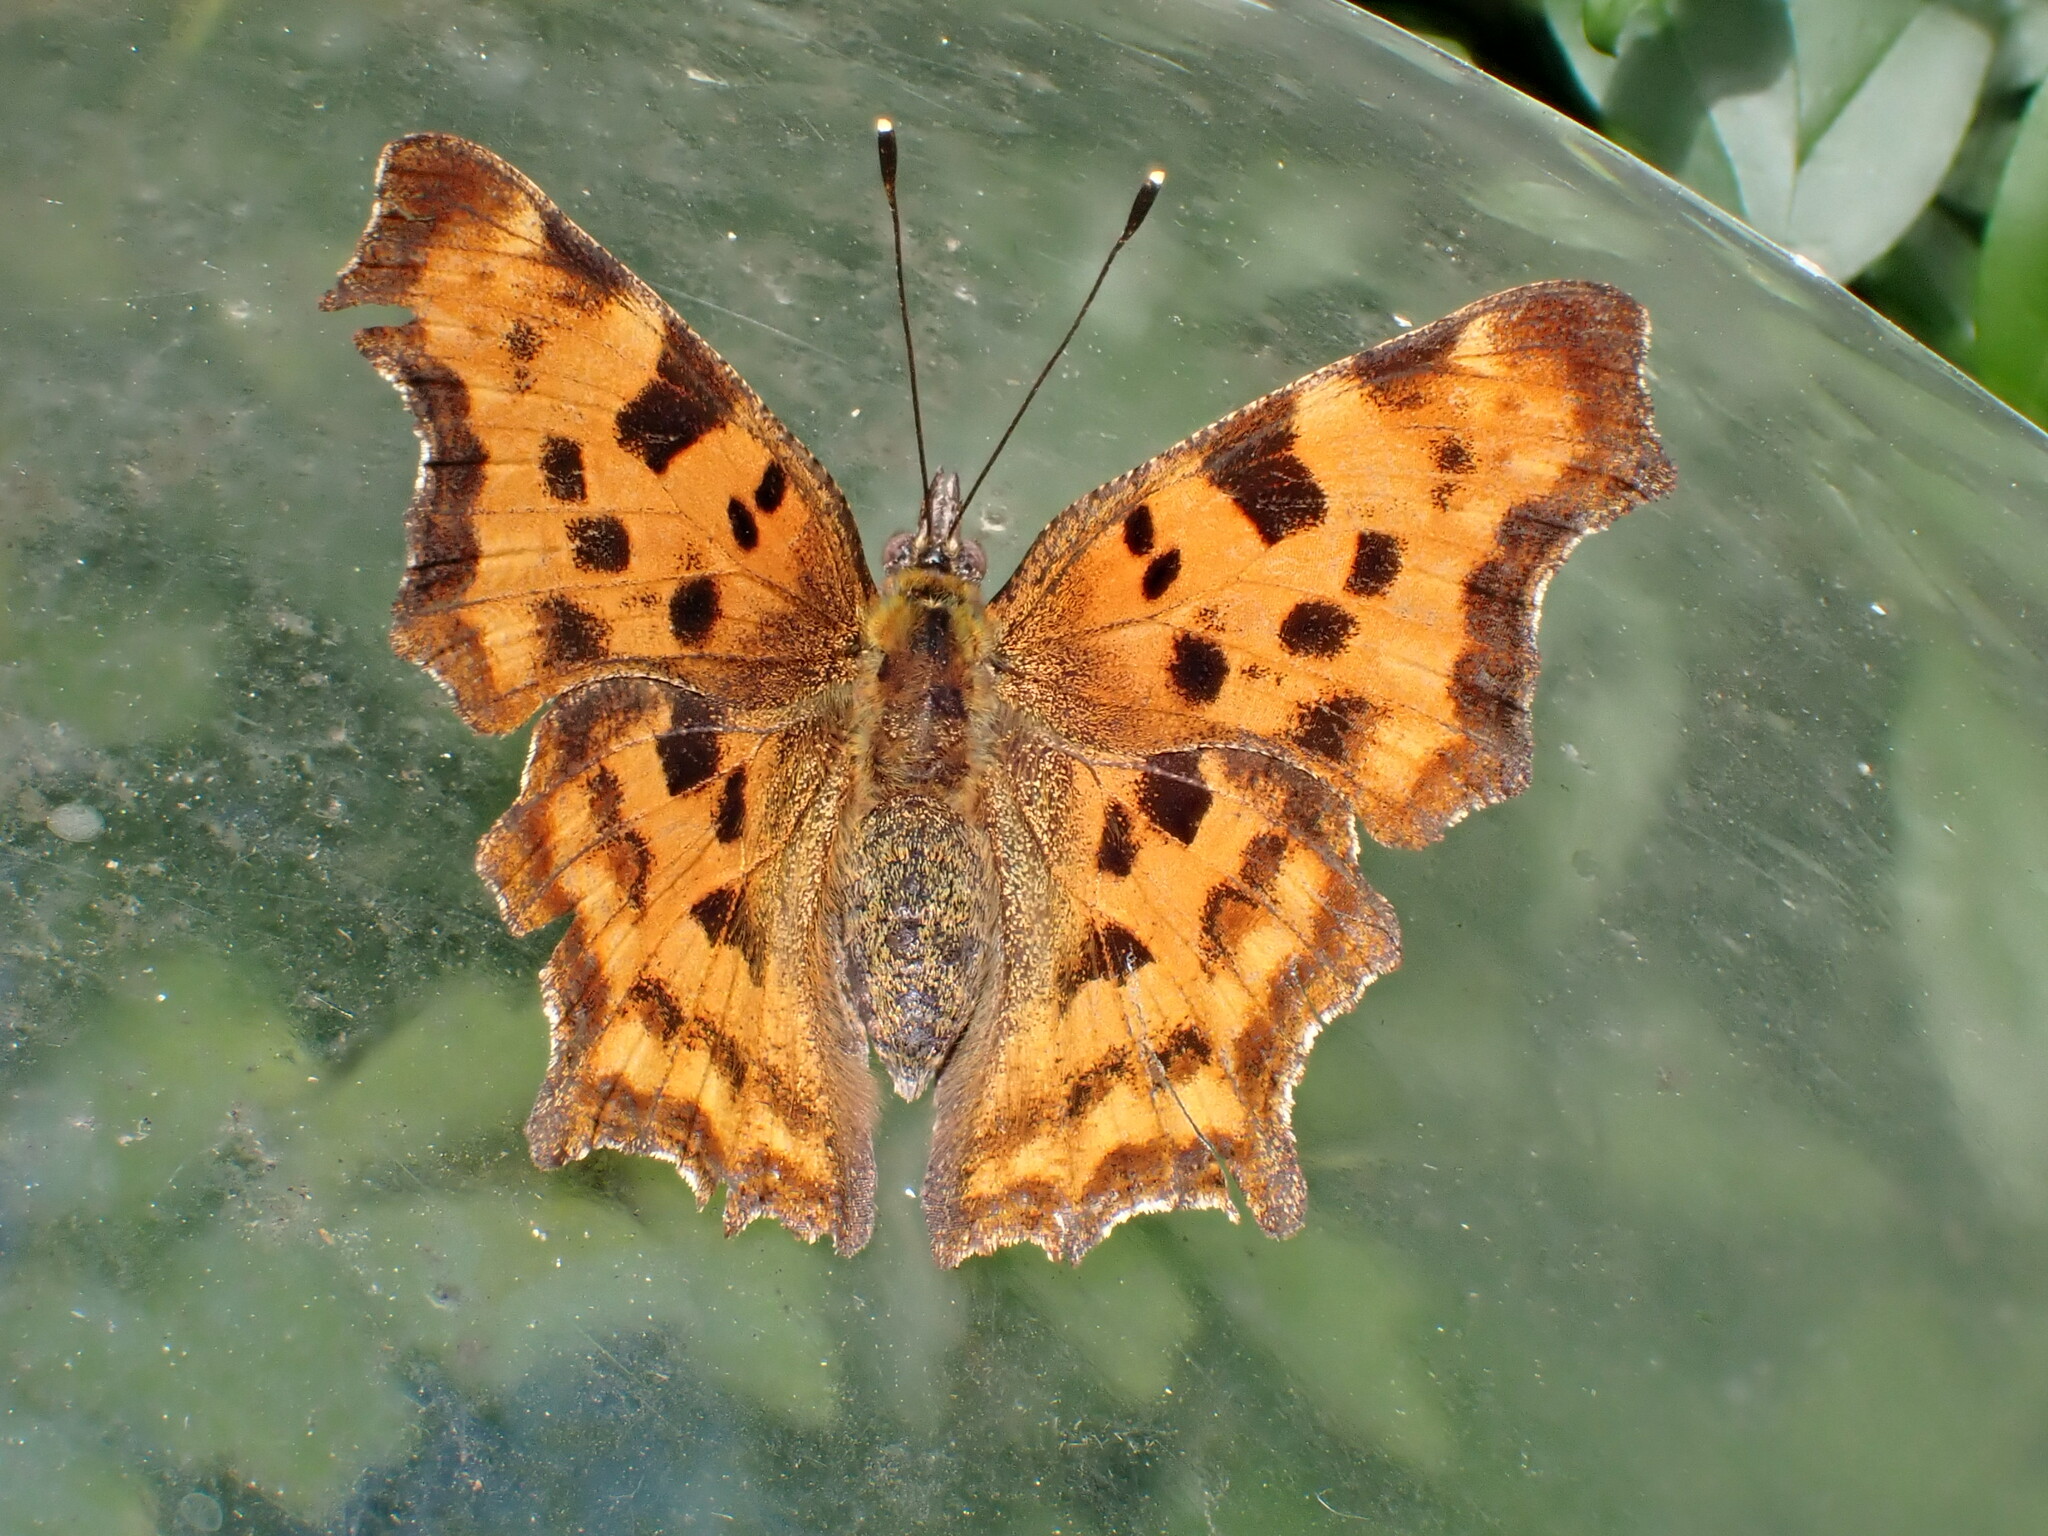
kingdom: Animalia
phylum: Arthropoda
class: Insecta
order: Lepidoptera
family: Nymphalidae
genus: Polygonia
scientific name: Polygonia c-album
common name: Comma
